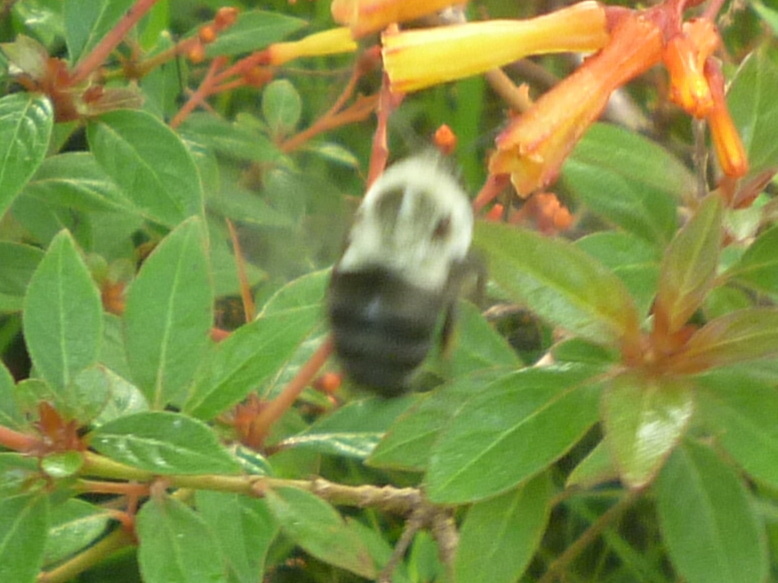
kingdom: Animalia
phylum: Arthropoda
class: Insecta
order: Hymenoptera
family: Apidae
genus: Bombus
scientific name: Bombus impatiens
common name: Common eastern bumble bee
